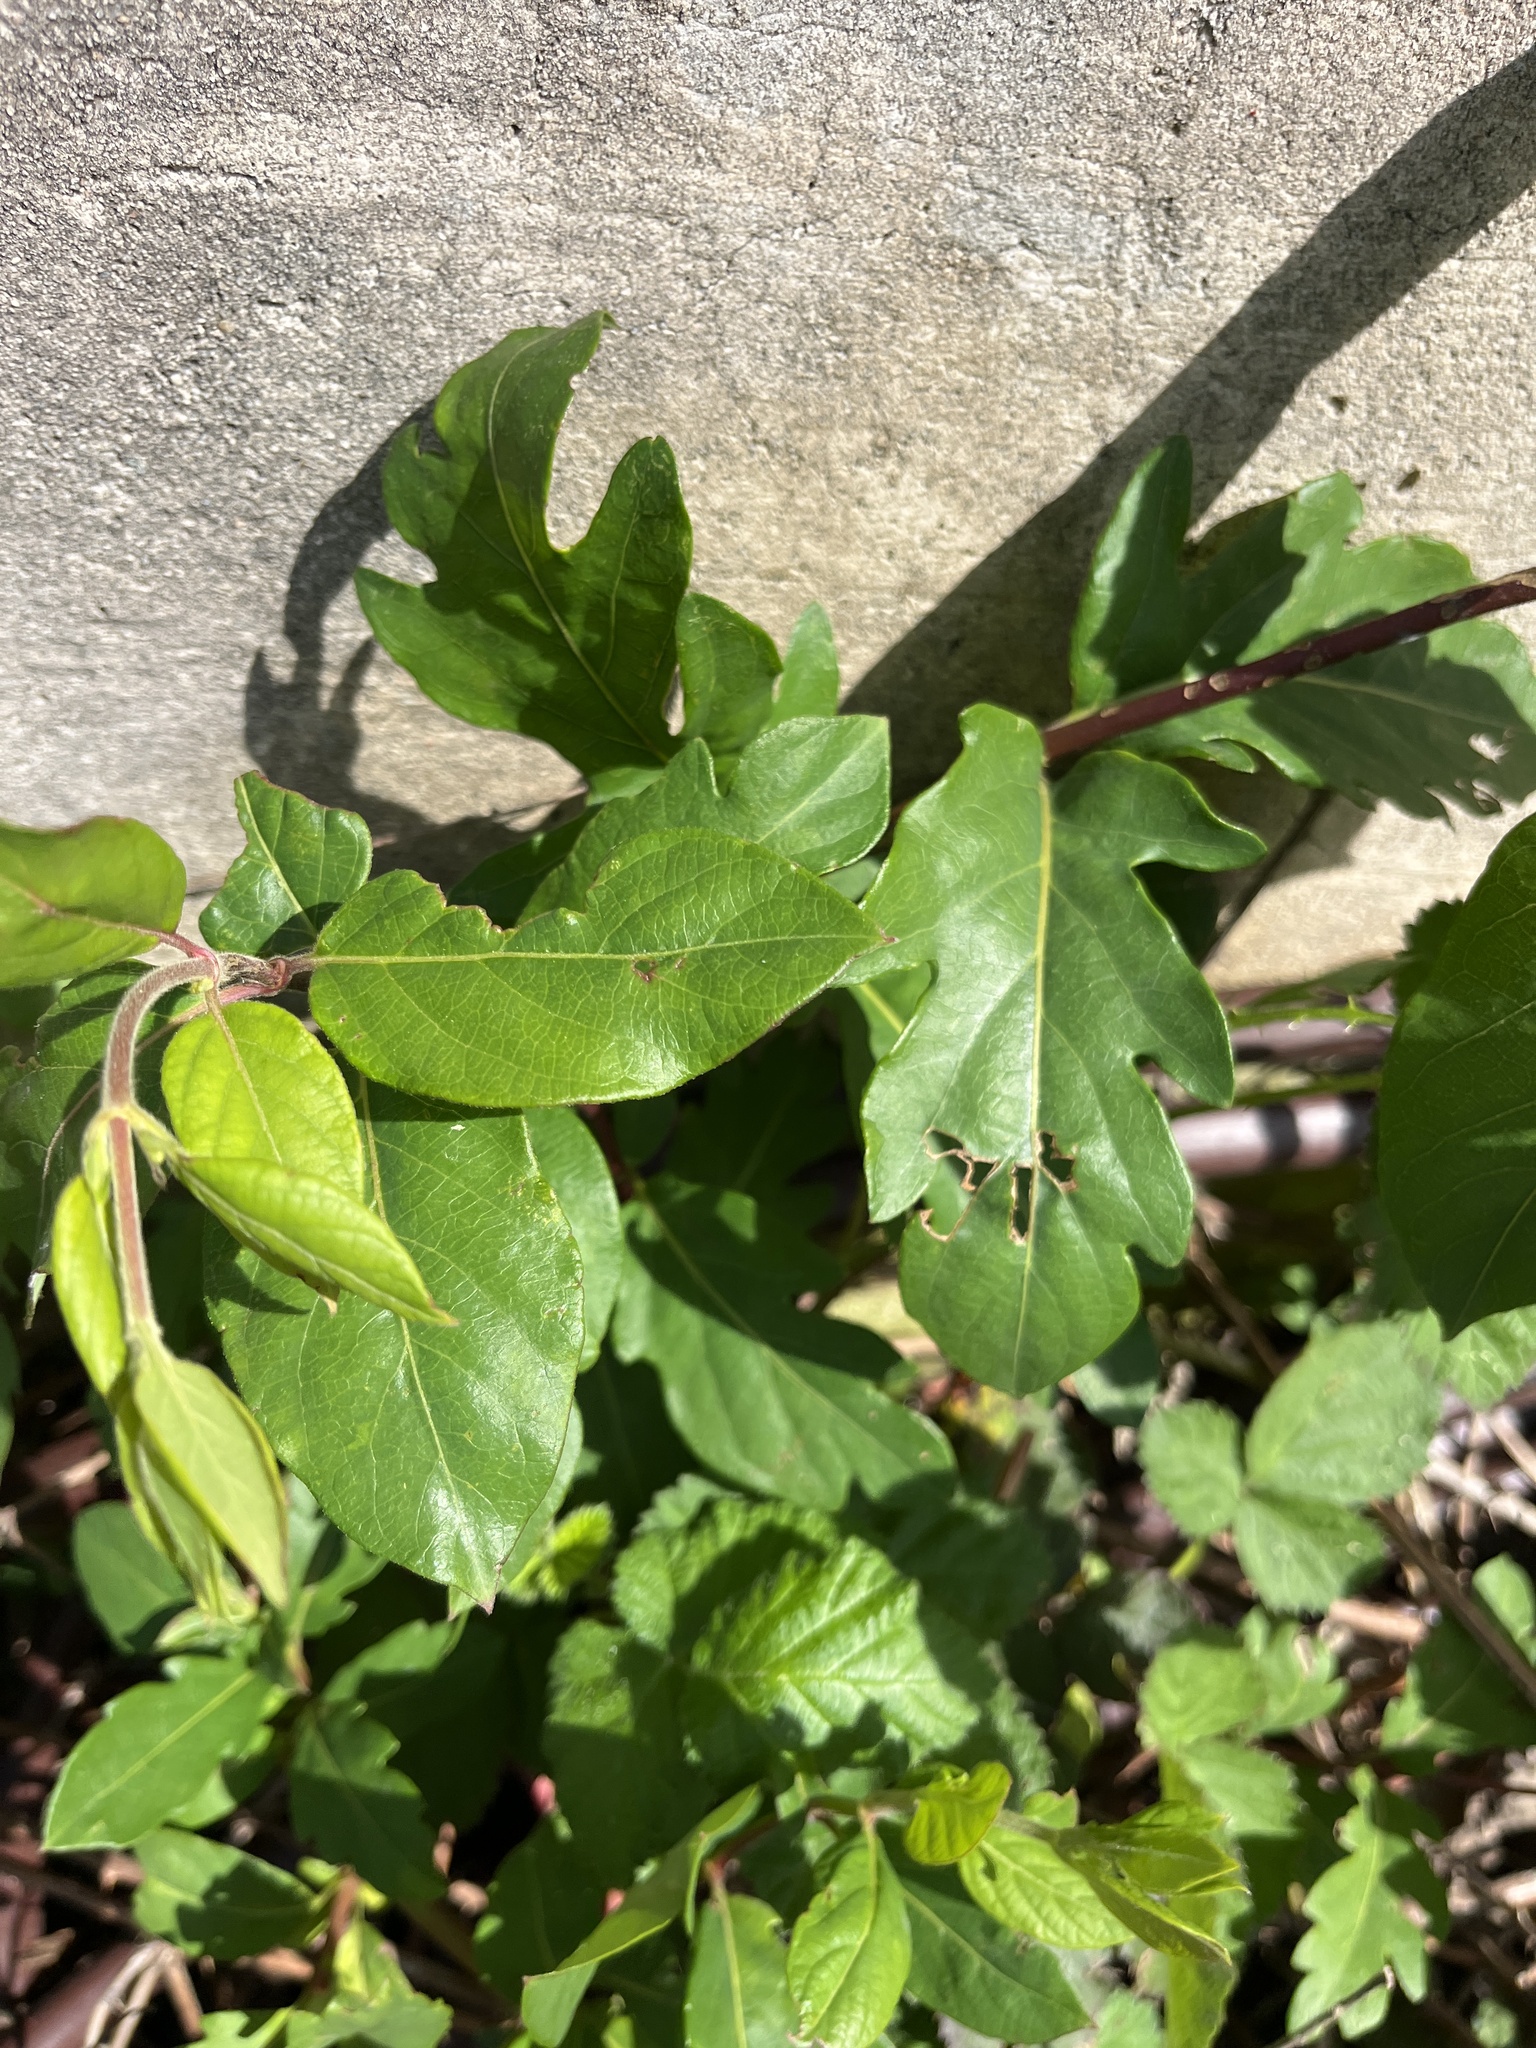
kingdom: Plantae
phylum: Tracheophyta
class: Magnoliopsida
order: Dipsacales
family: Caprifoliaceae
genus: Lonicera
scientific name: Lonicera japonica
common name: Japanese honeysuckle
